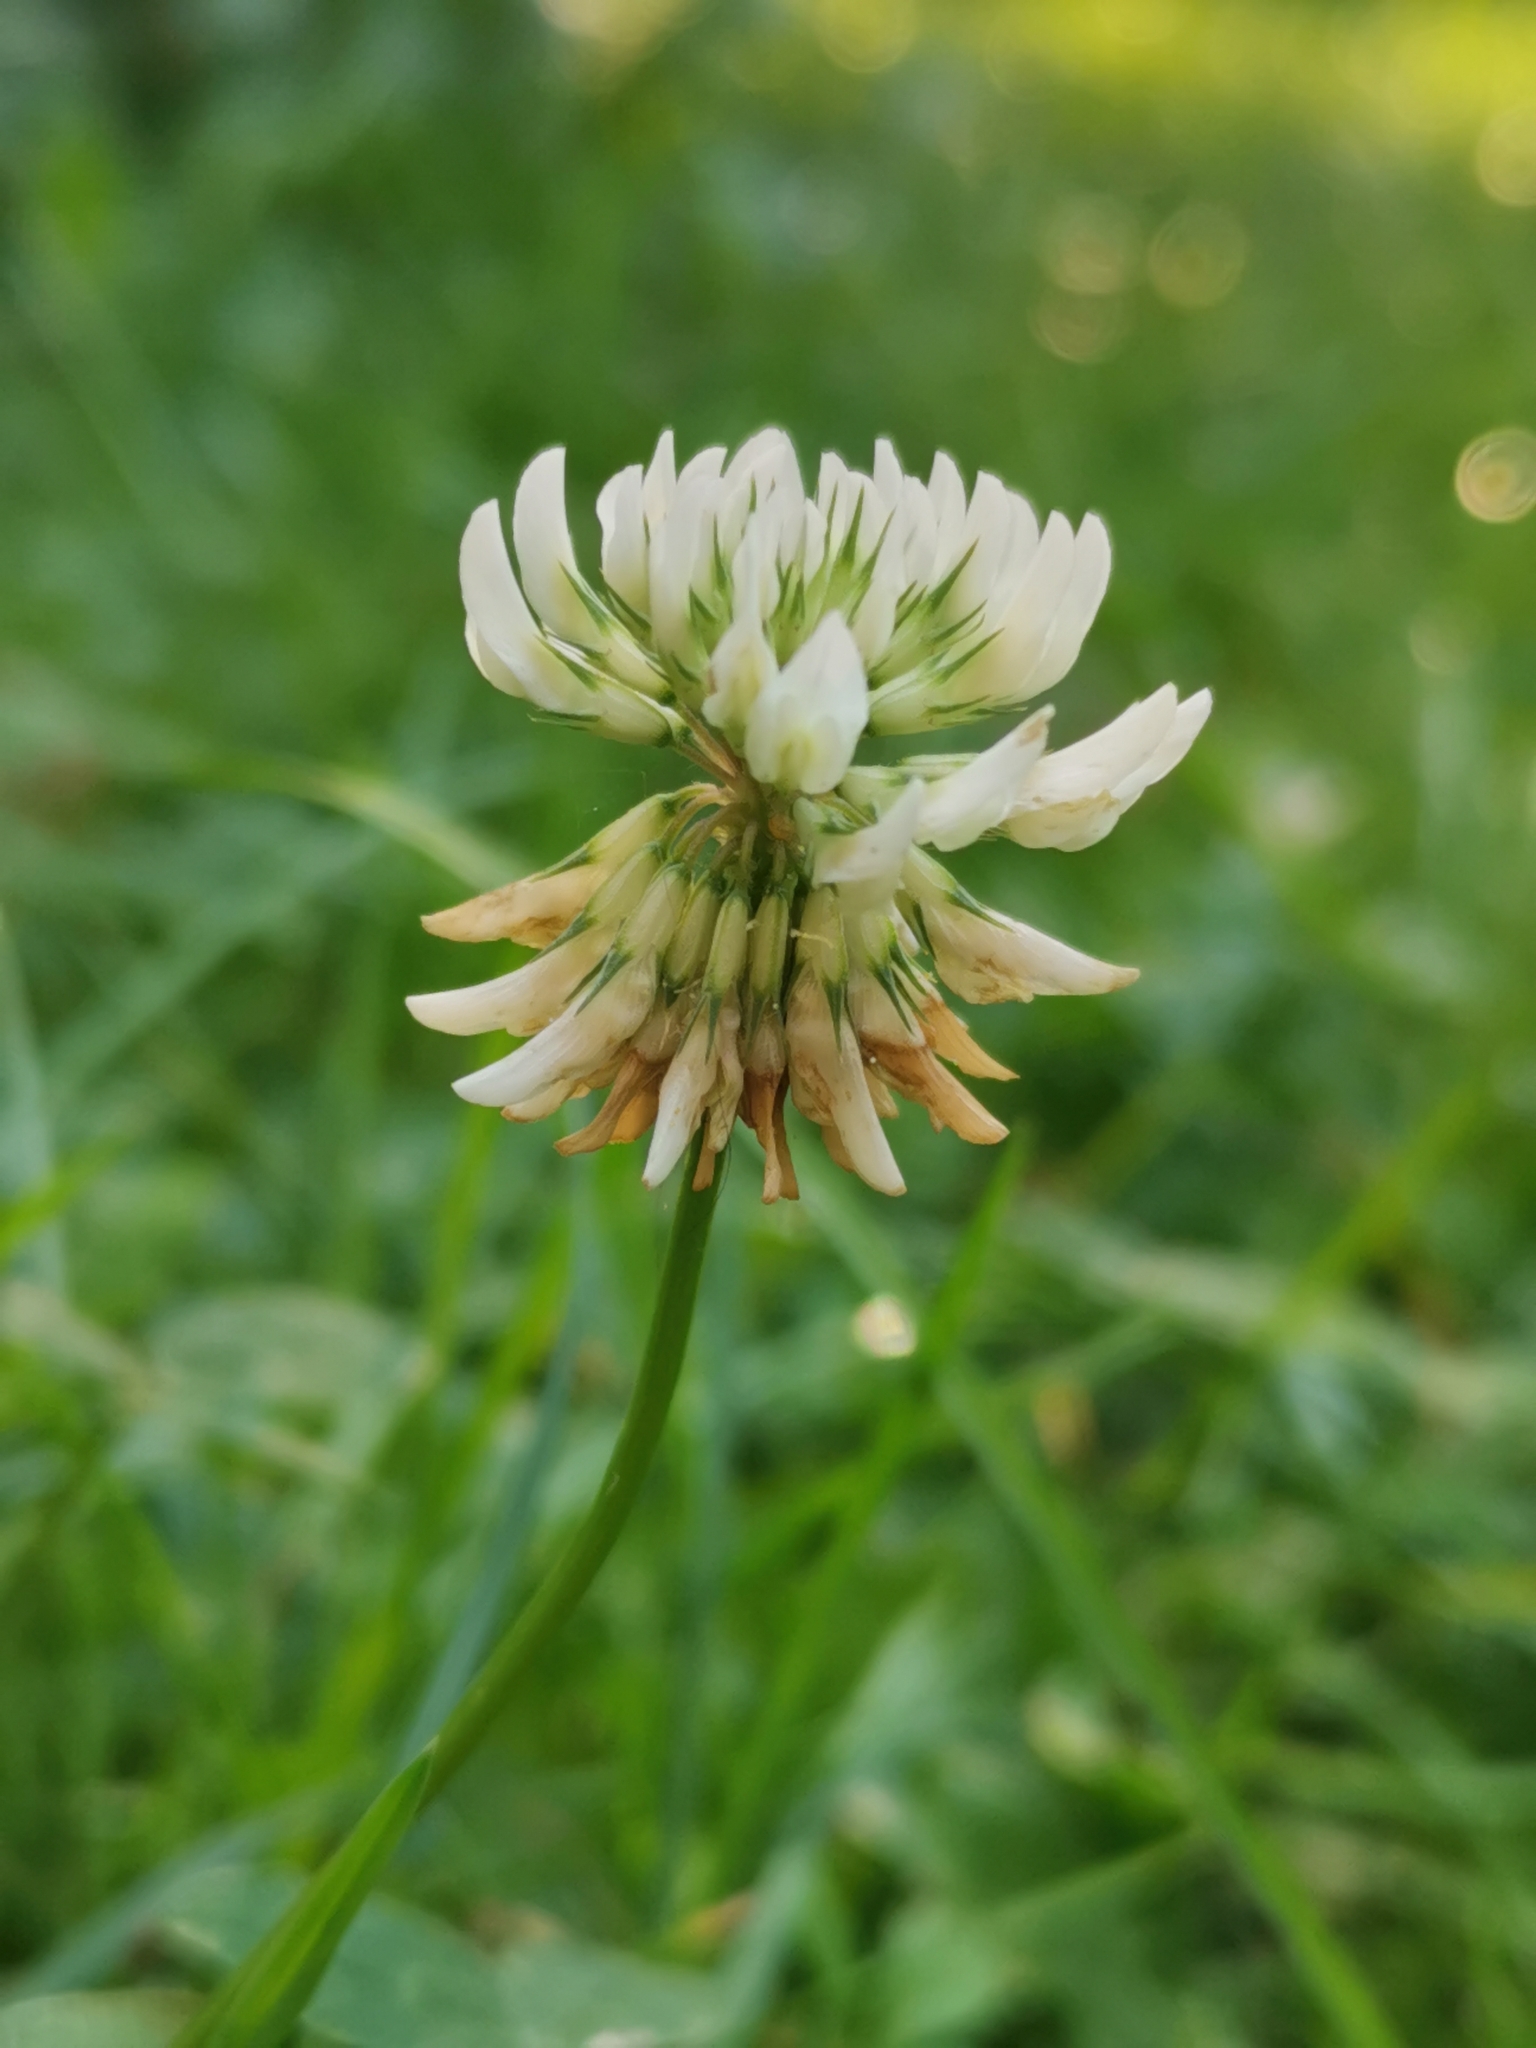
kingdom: Plantae
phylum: Tracheophyta
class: Magnoliopsida
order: Fabales
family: Fabaceae
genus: Trifolium
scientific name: Trifolium repens
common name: White clover
